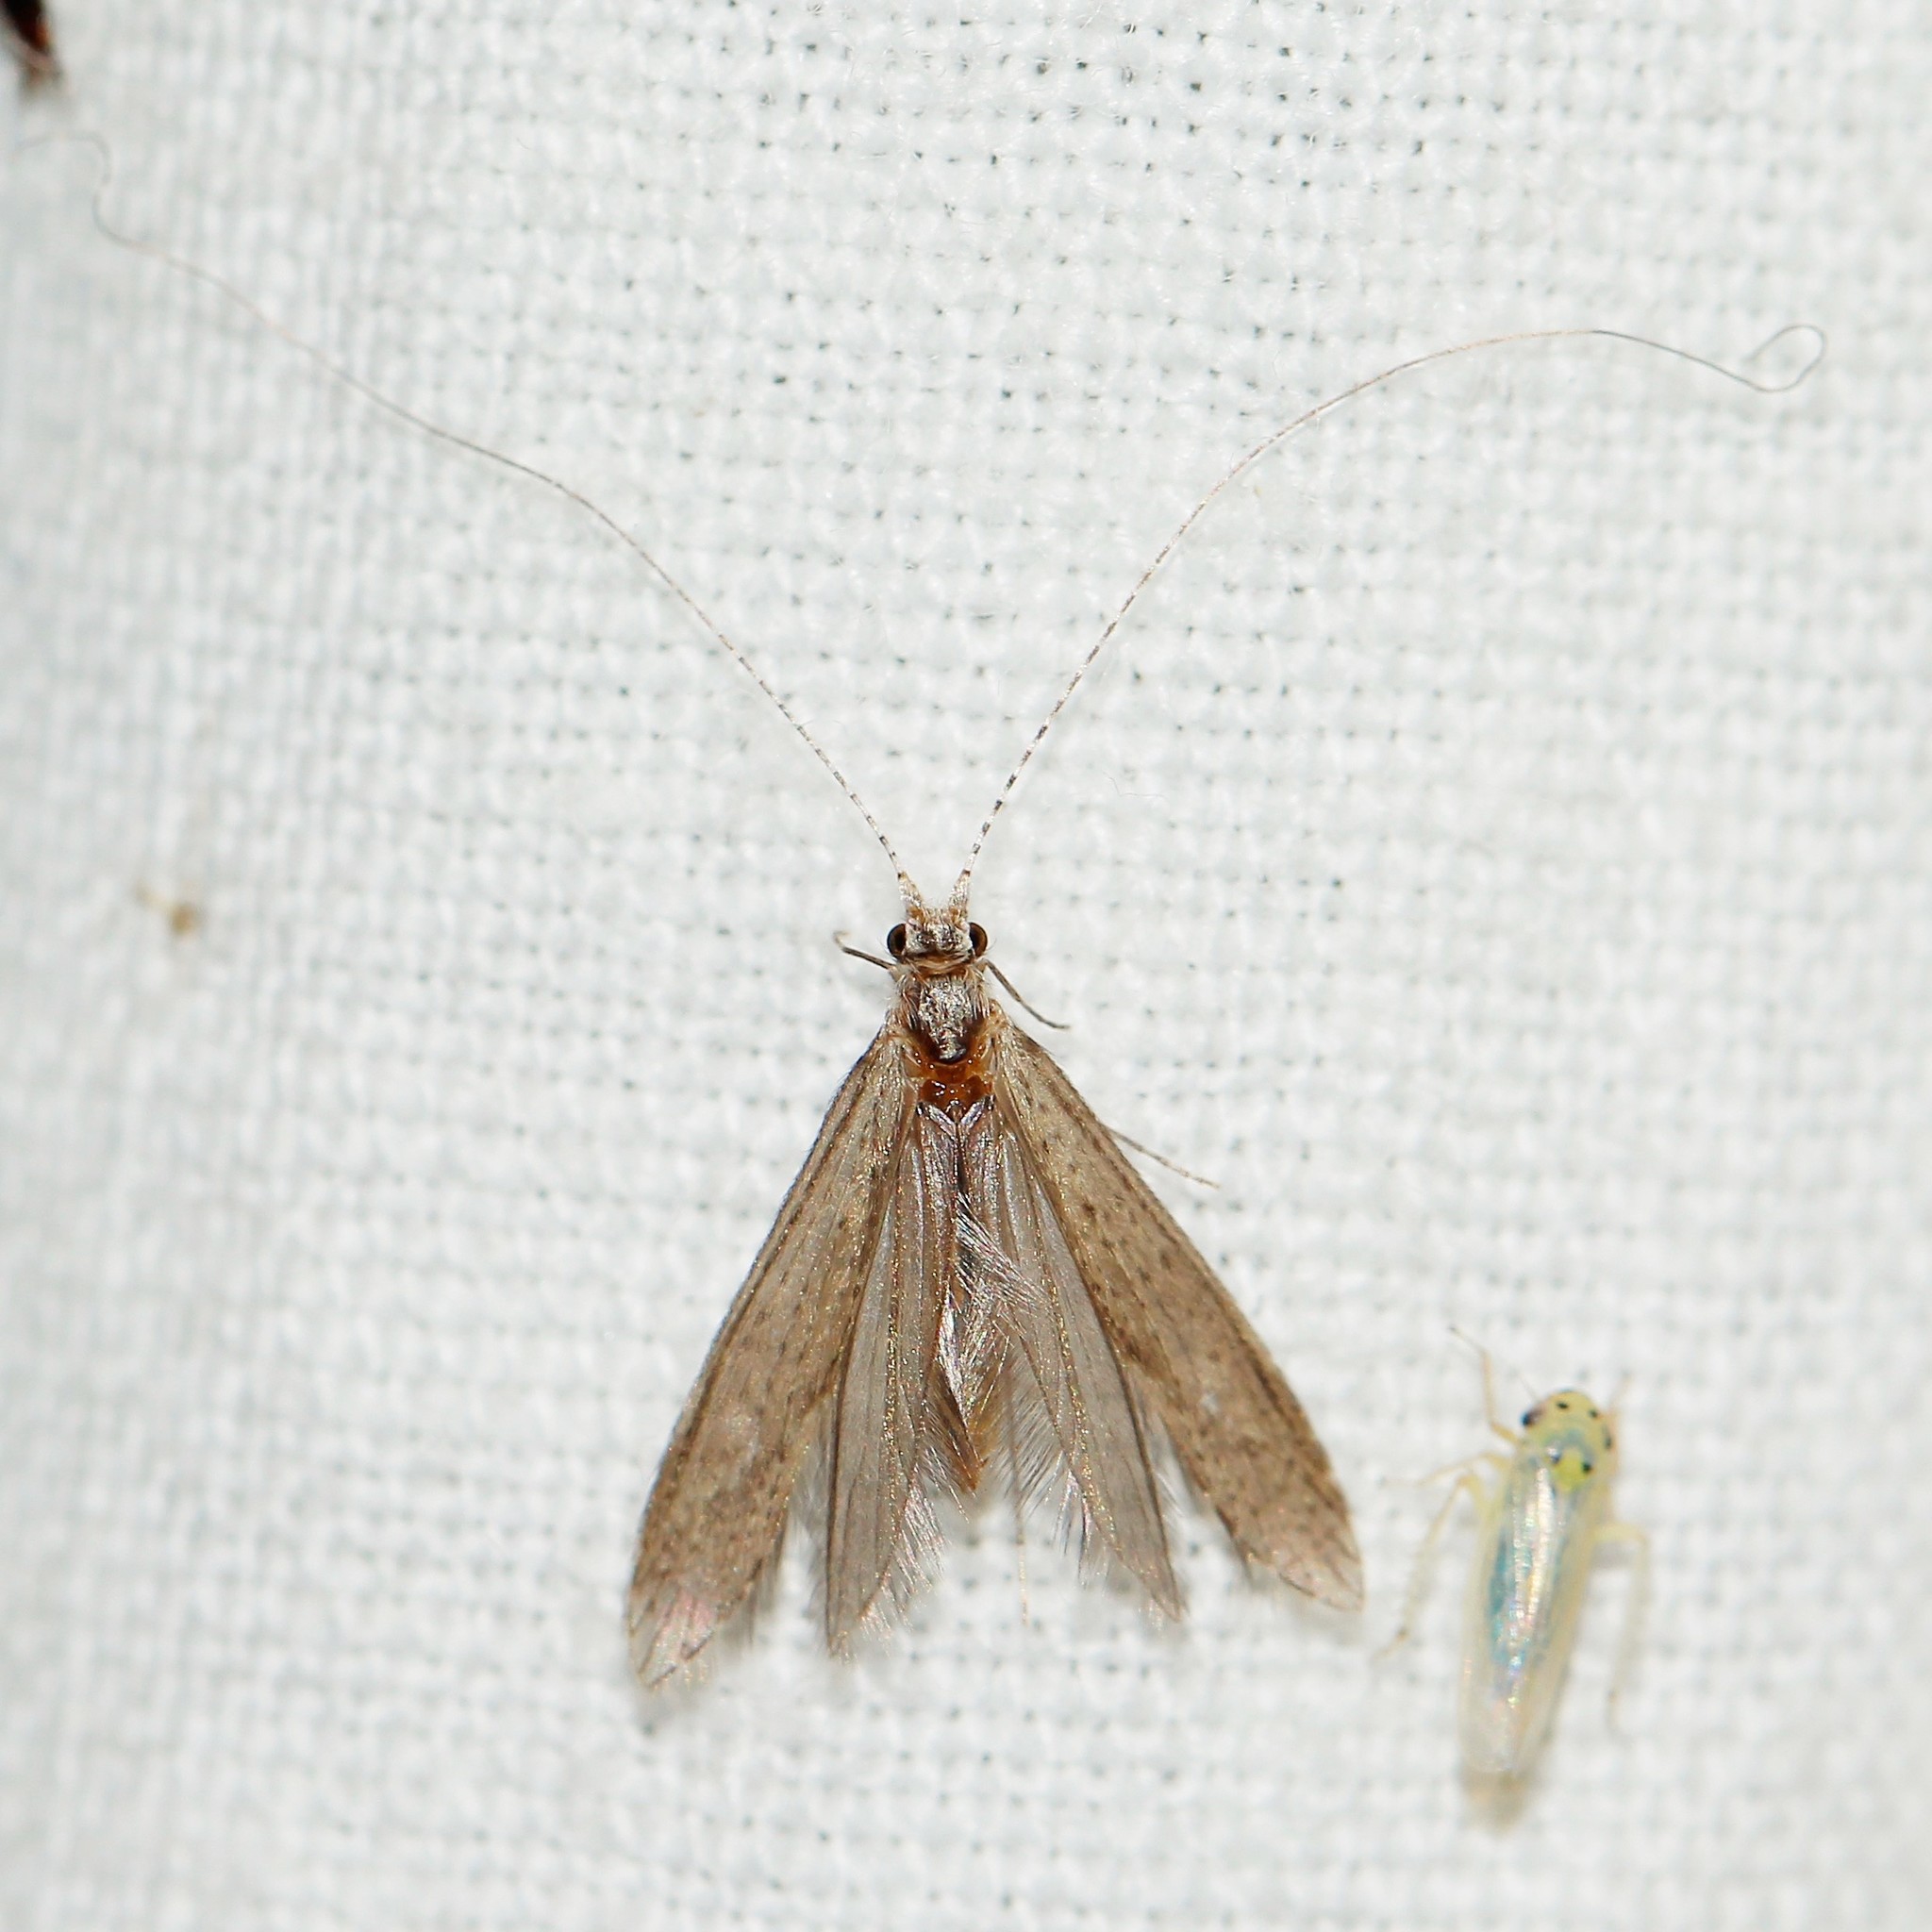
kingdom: Animalia
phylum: Arthropoda
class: Insecta
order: Trichoptera
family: Leptoceridae
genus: Leptocerus
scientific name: Leptocerus tineiformis
